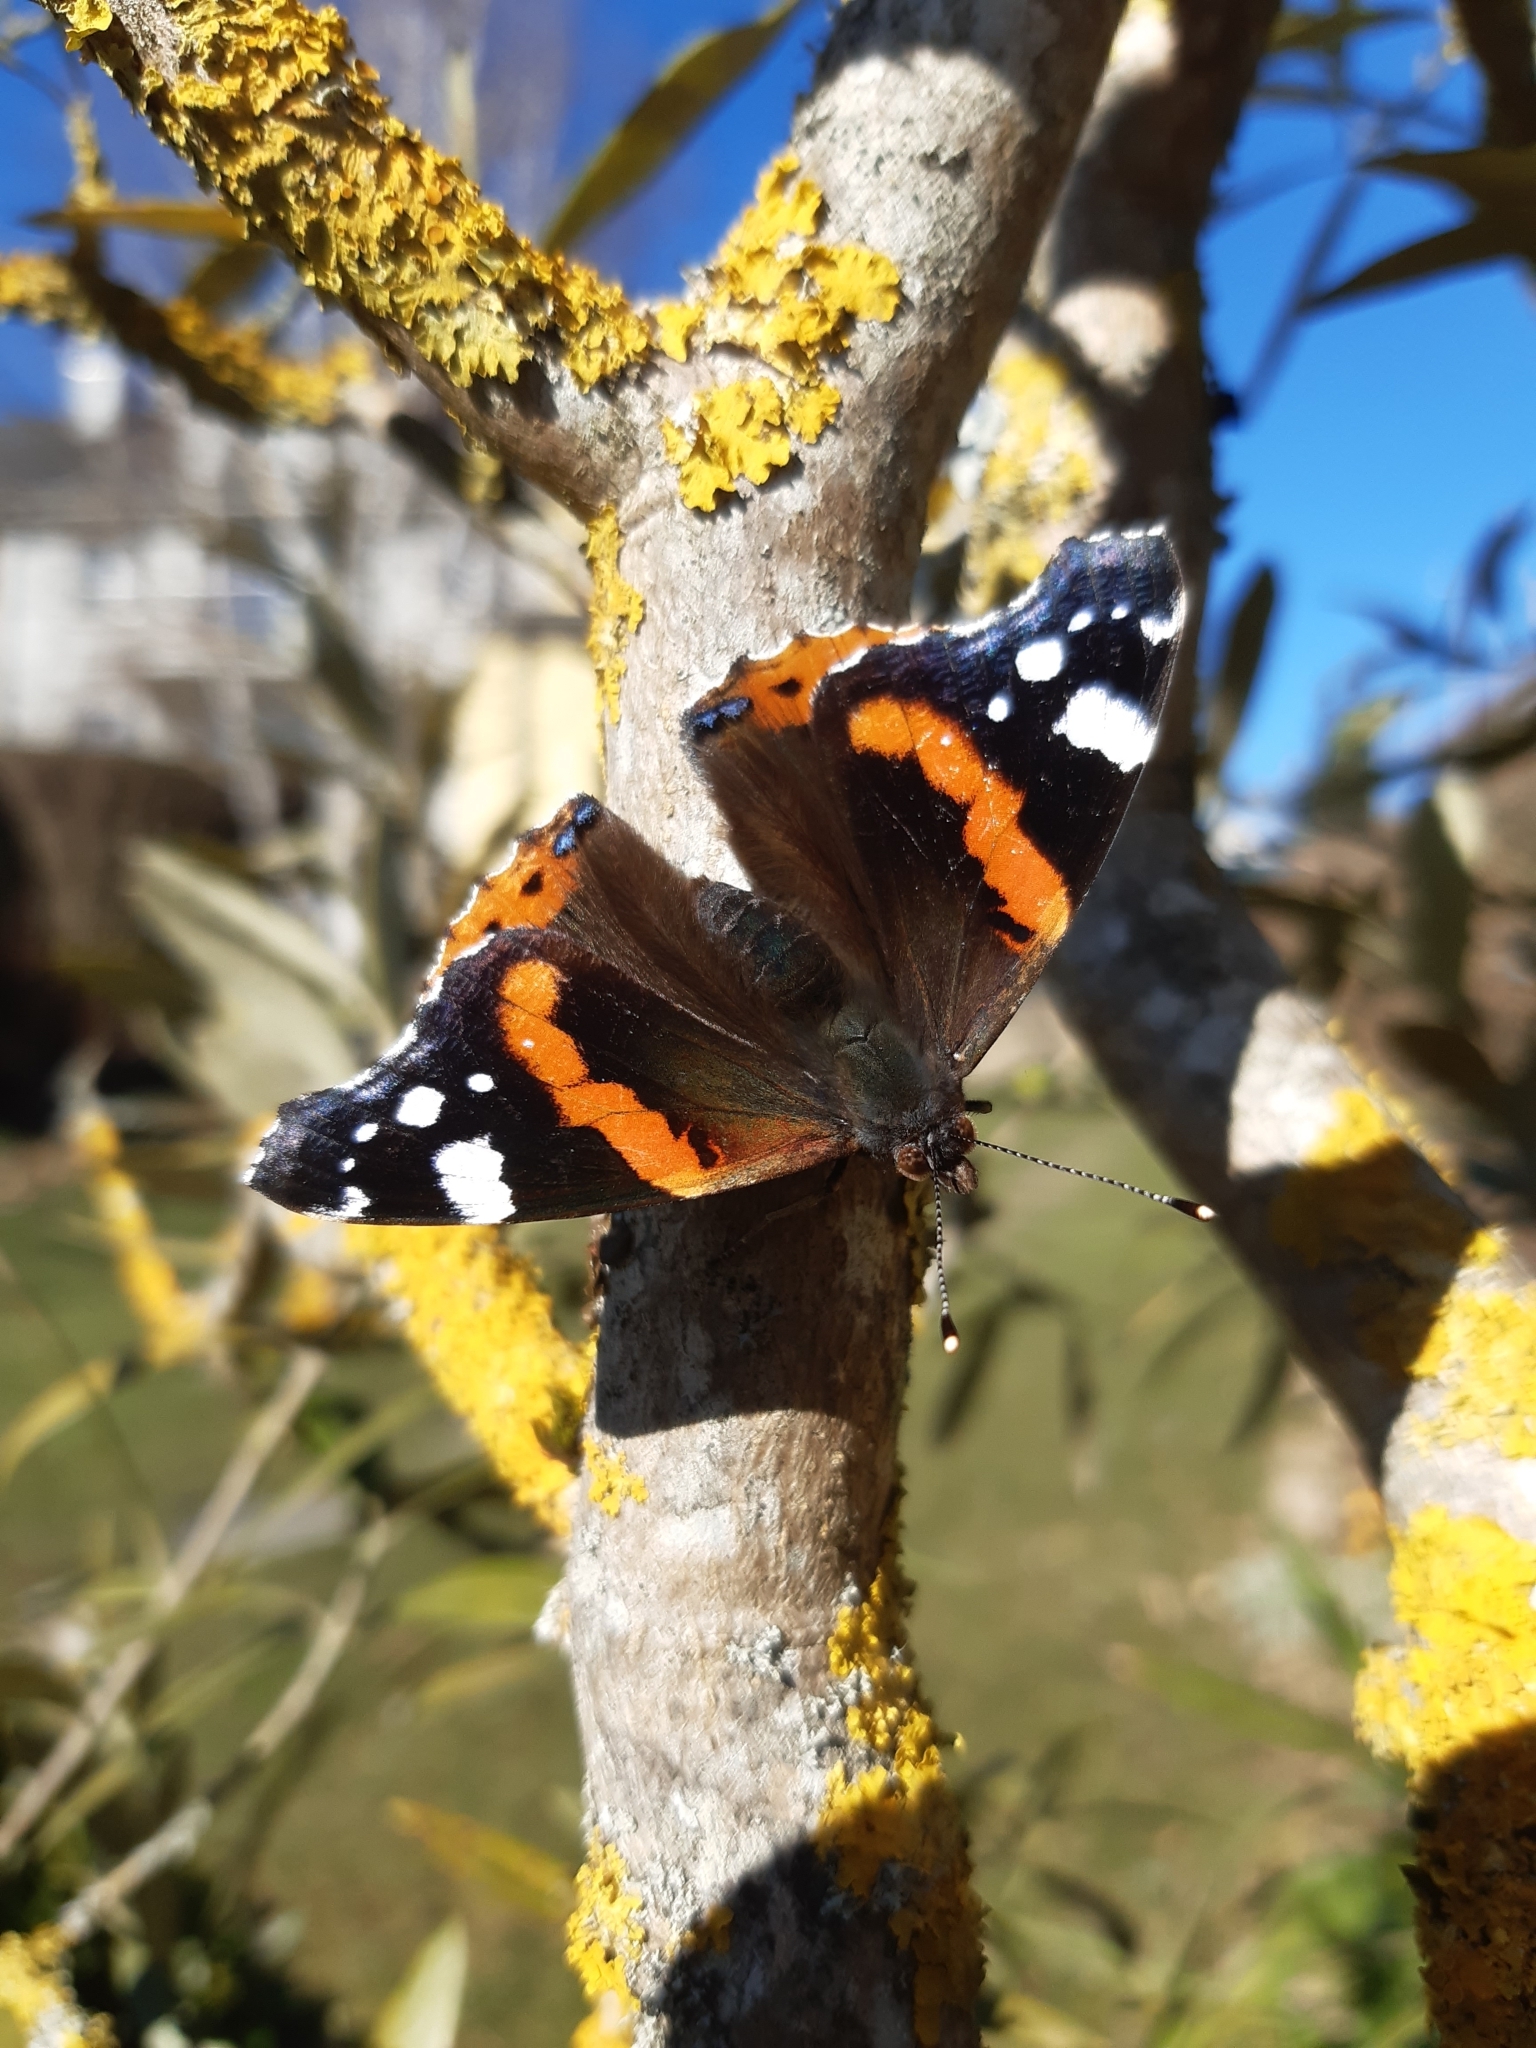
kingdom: Animalia
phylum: Arthropoda
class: Insecta
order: Lepidoptera
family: Nymphalidae
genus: Vanessa
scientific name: Vanessa atalanta
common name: Red admiral
